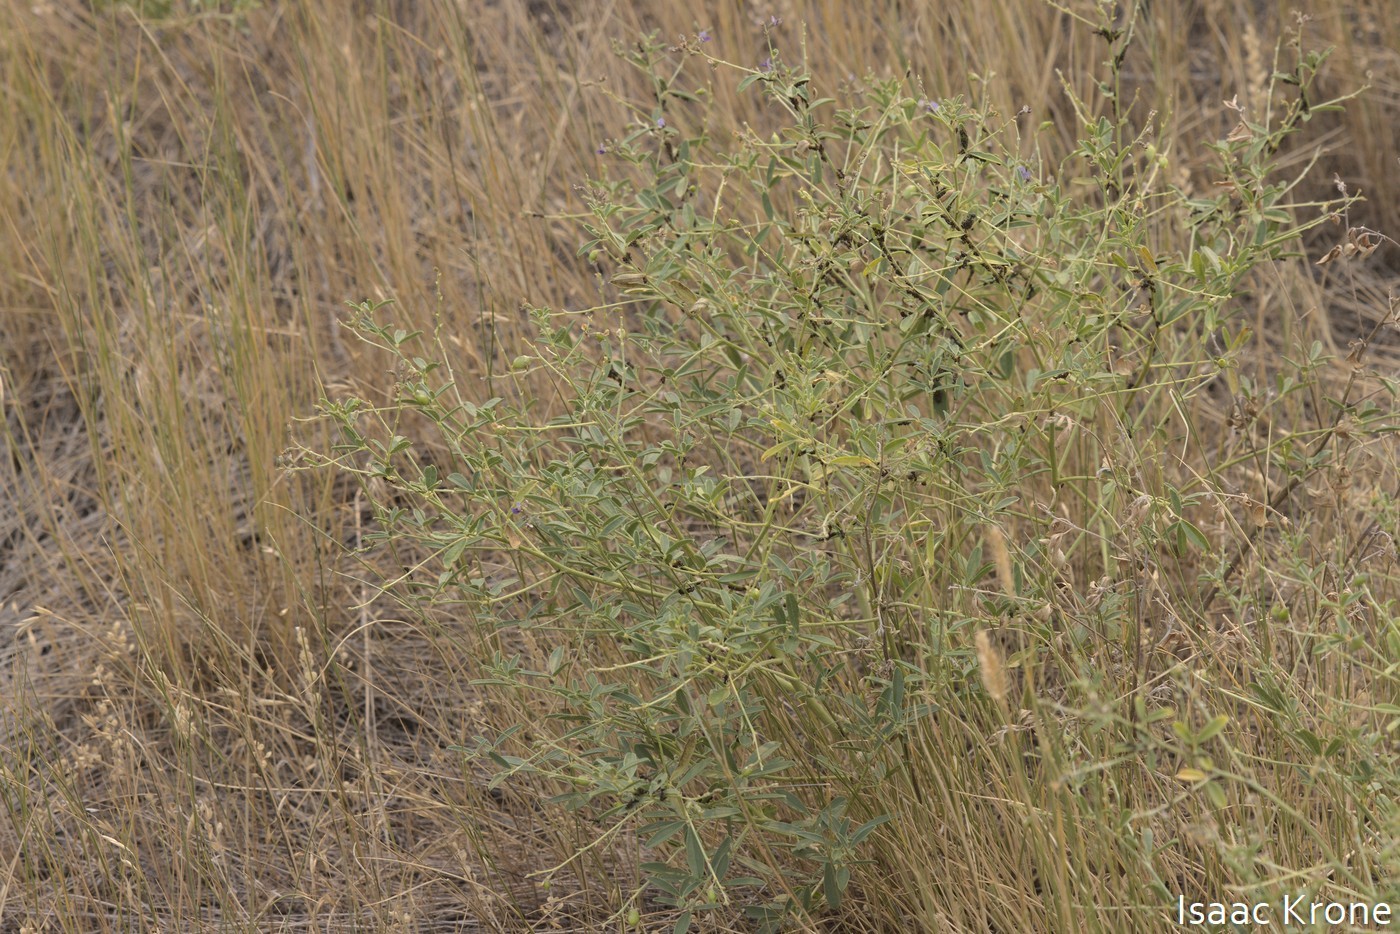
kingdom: Plantae
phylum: Tracheophyta
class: Magnoliopsida
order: Fabales
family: Fabaceae
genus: Pediomelum
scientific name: Pediomelum tenuiflorum
